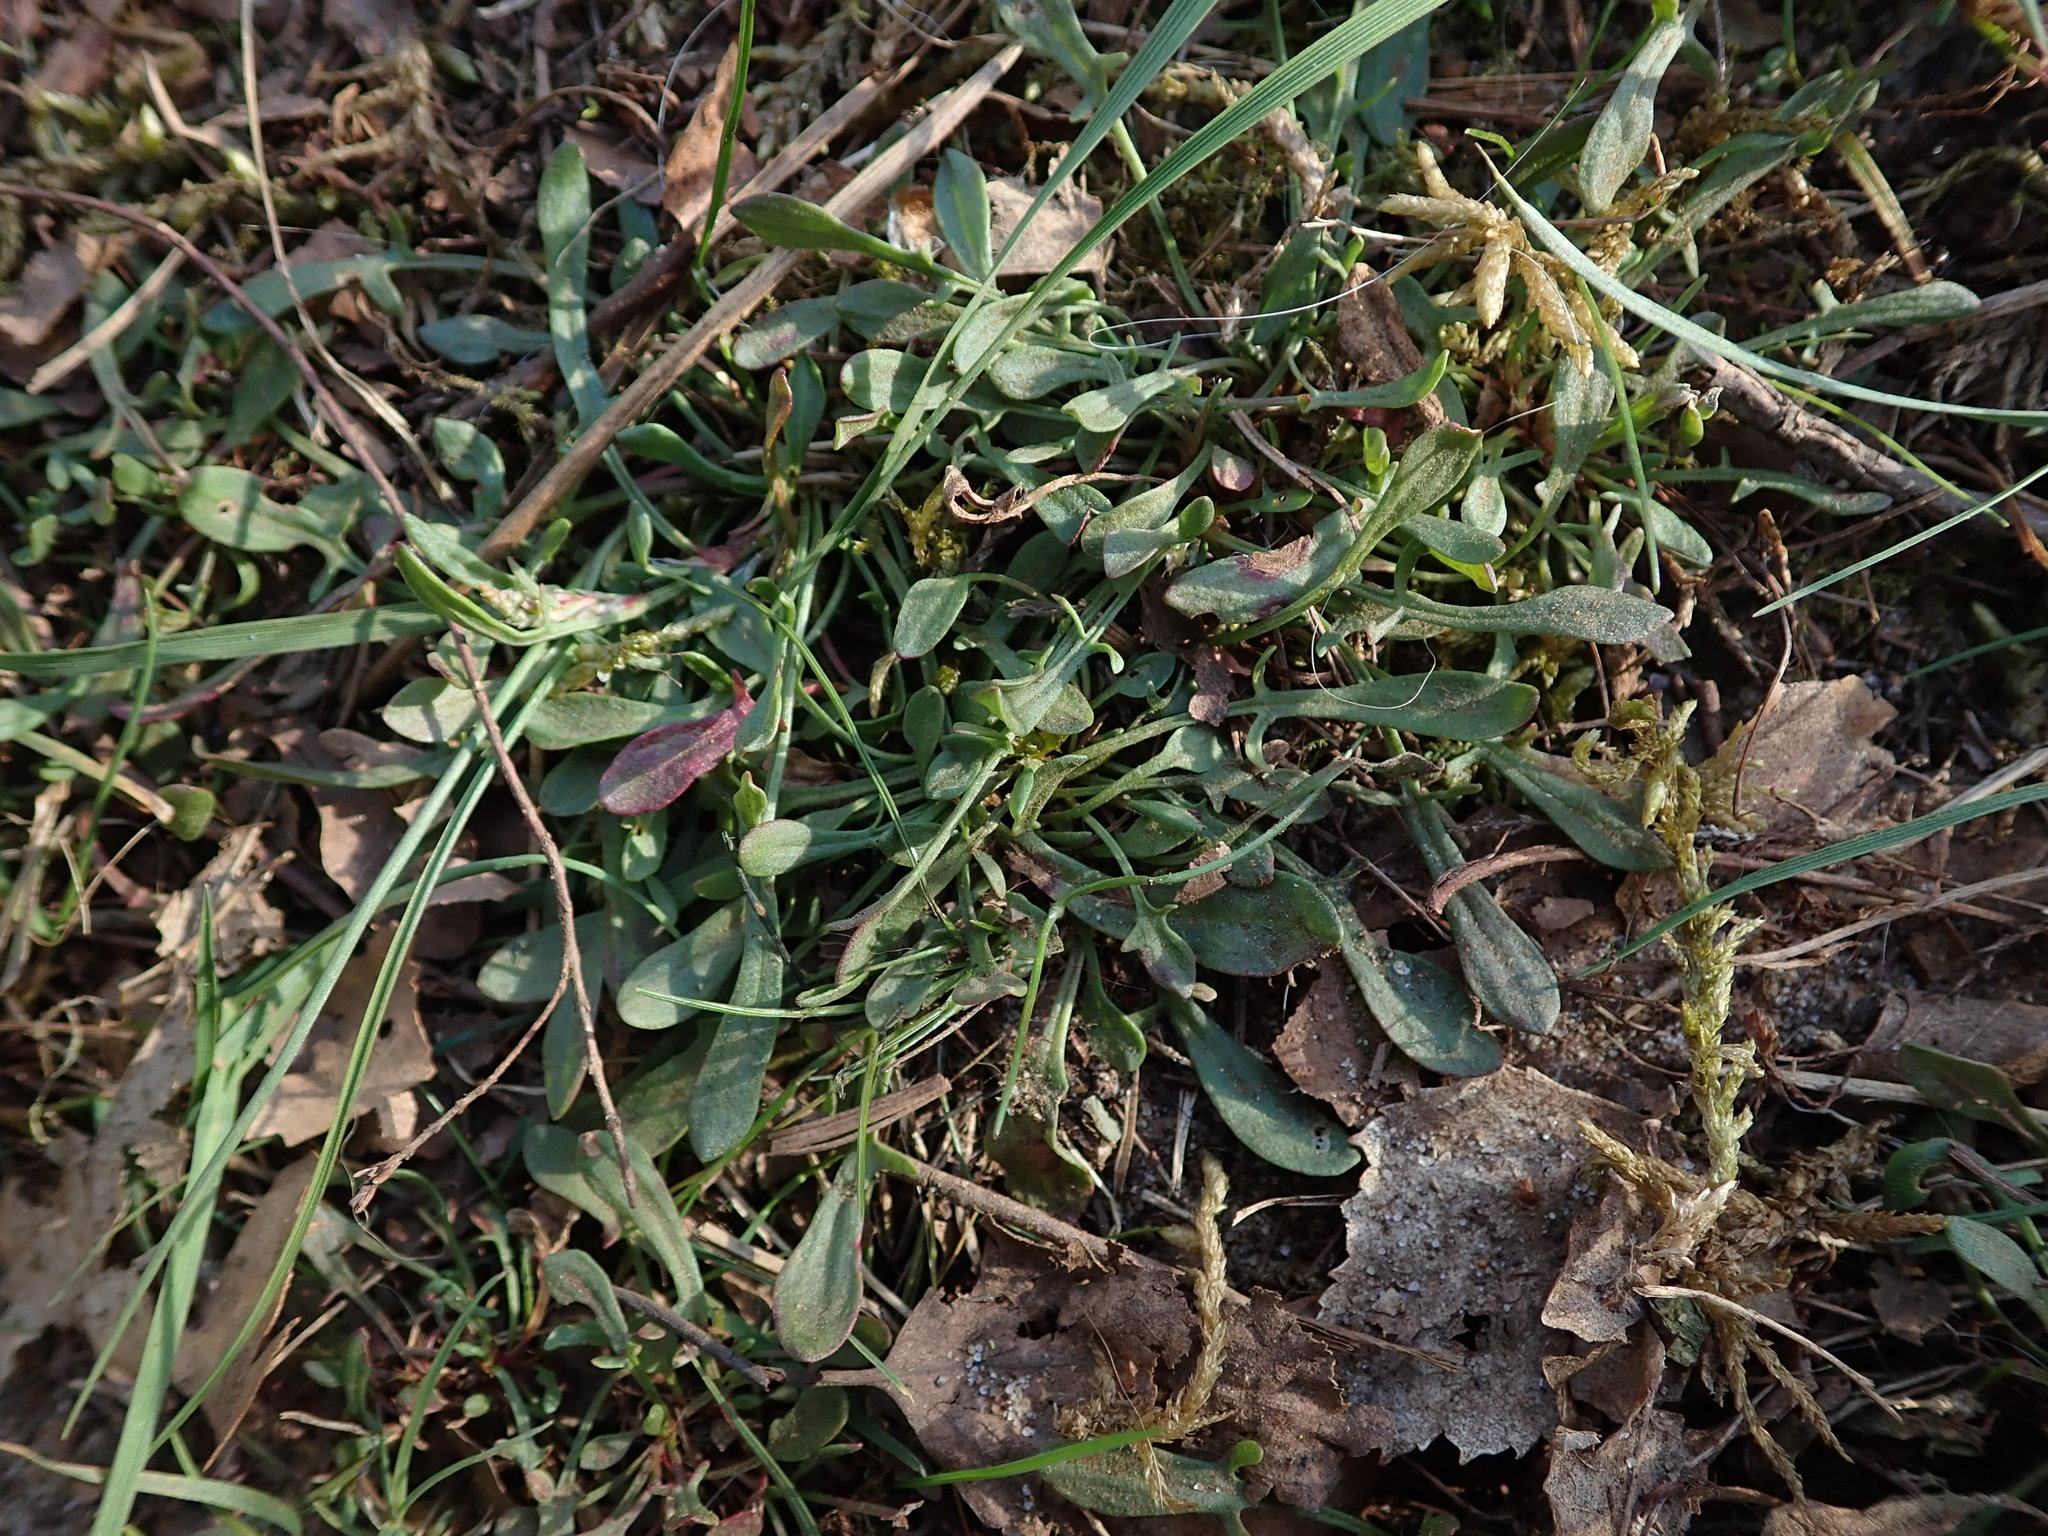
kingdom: Plantae
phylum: Tracheophyta
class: Magnoliopsida
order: Caryophyllales
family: Polygonaceae
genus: Rumex
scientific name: Rumex acetosella
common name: Common sheep sorrel
